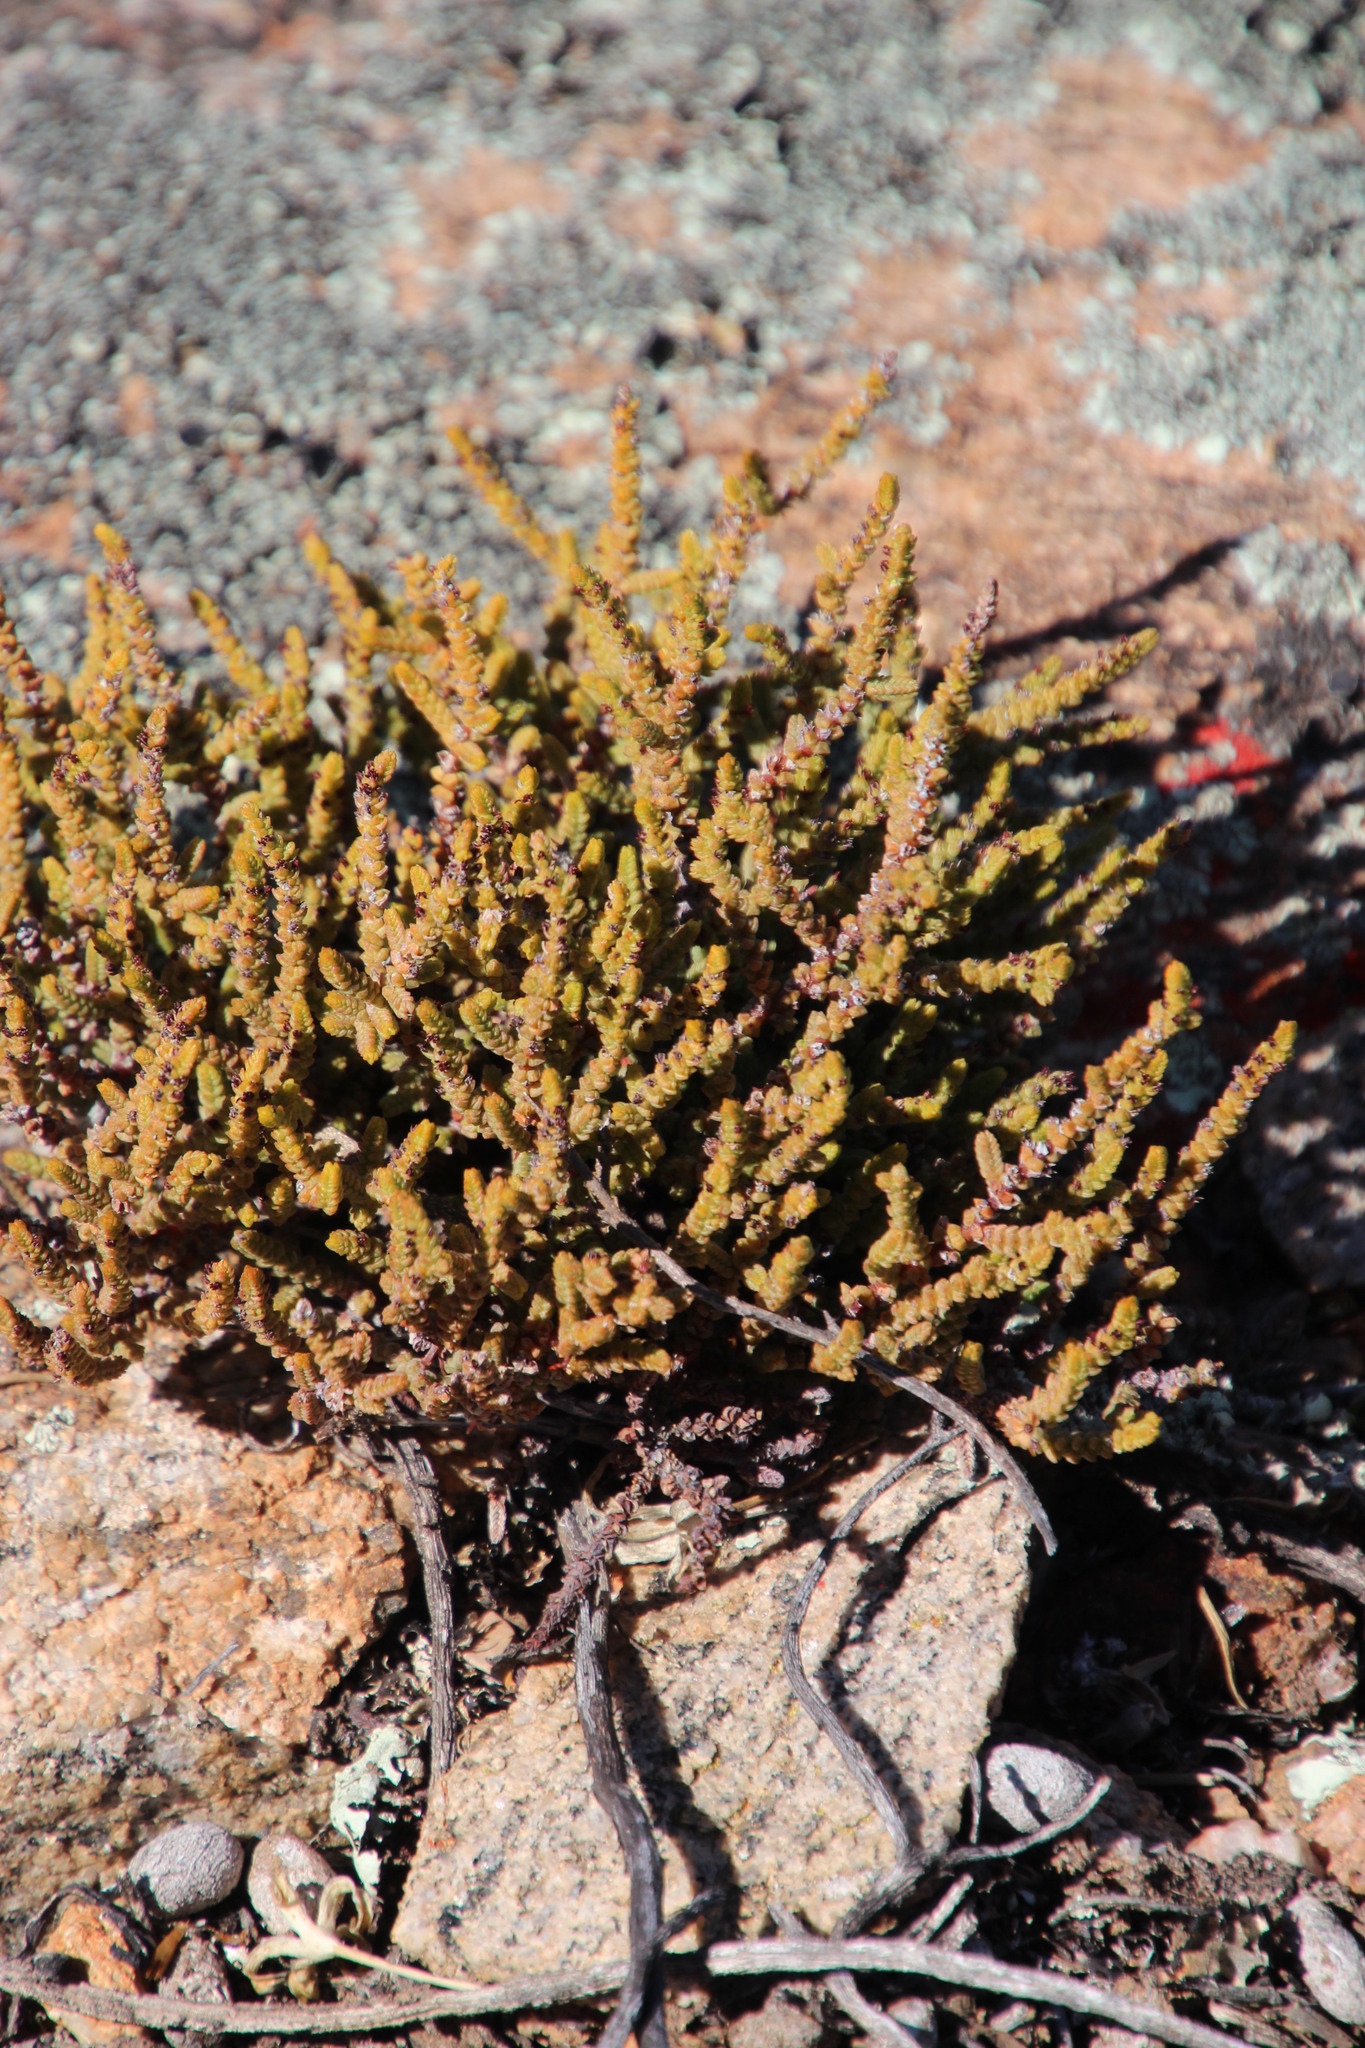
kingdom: Plantae
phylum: Tracheophyta
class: Magnoliopsida
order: Saxifragales
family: Crassulaceae
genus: Crassula
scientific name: Crassula muscosa
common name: Toy-cypress
